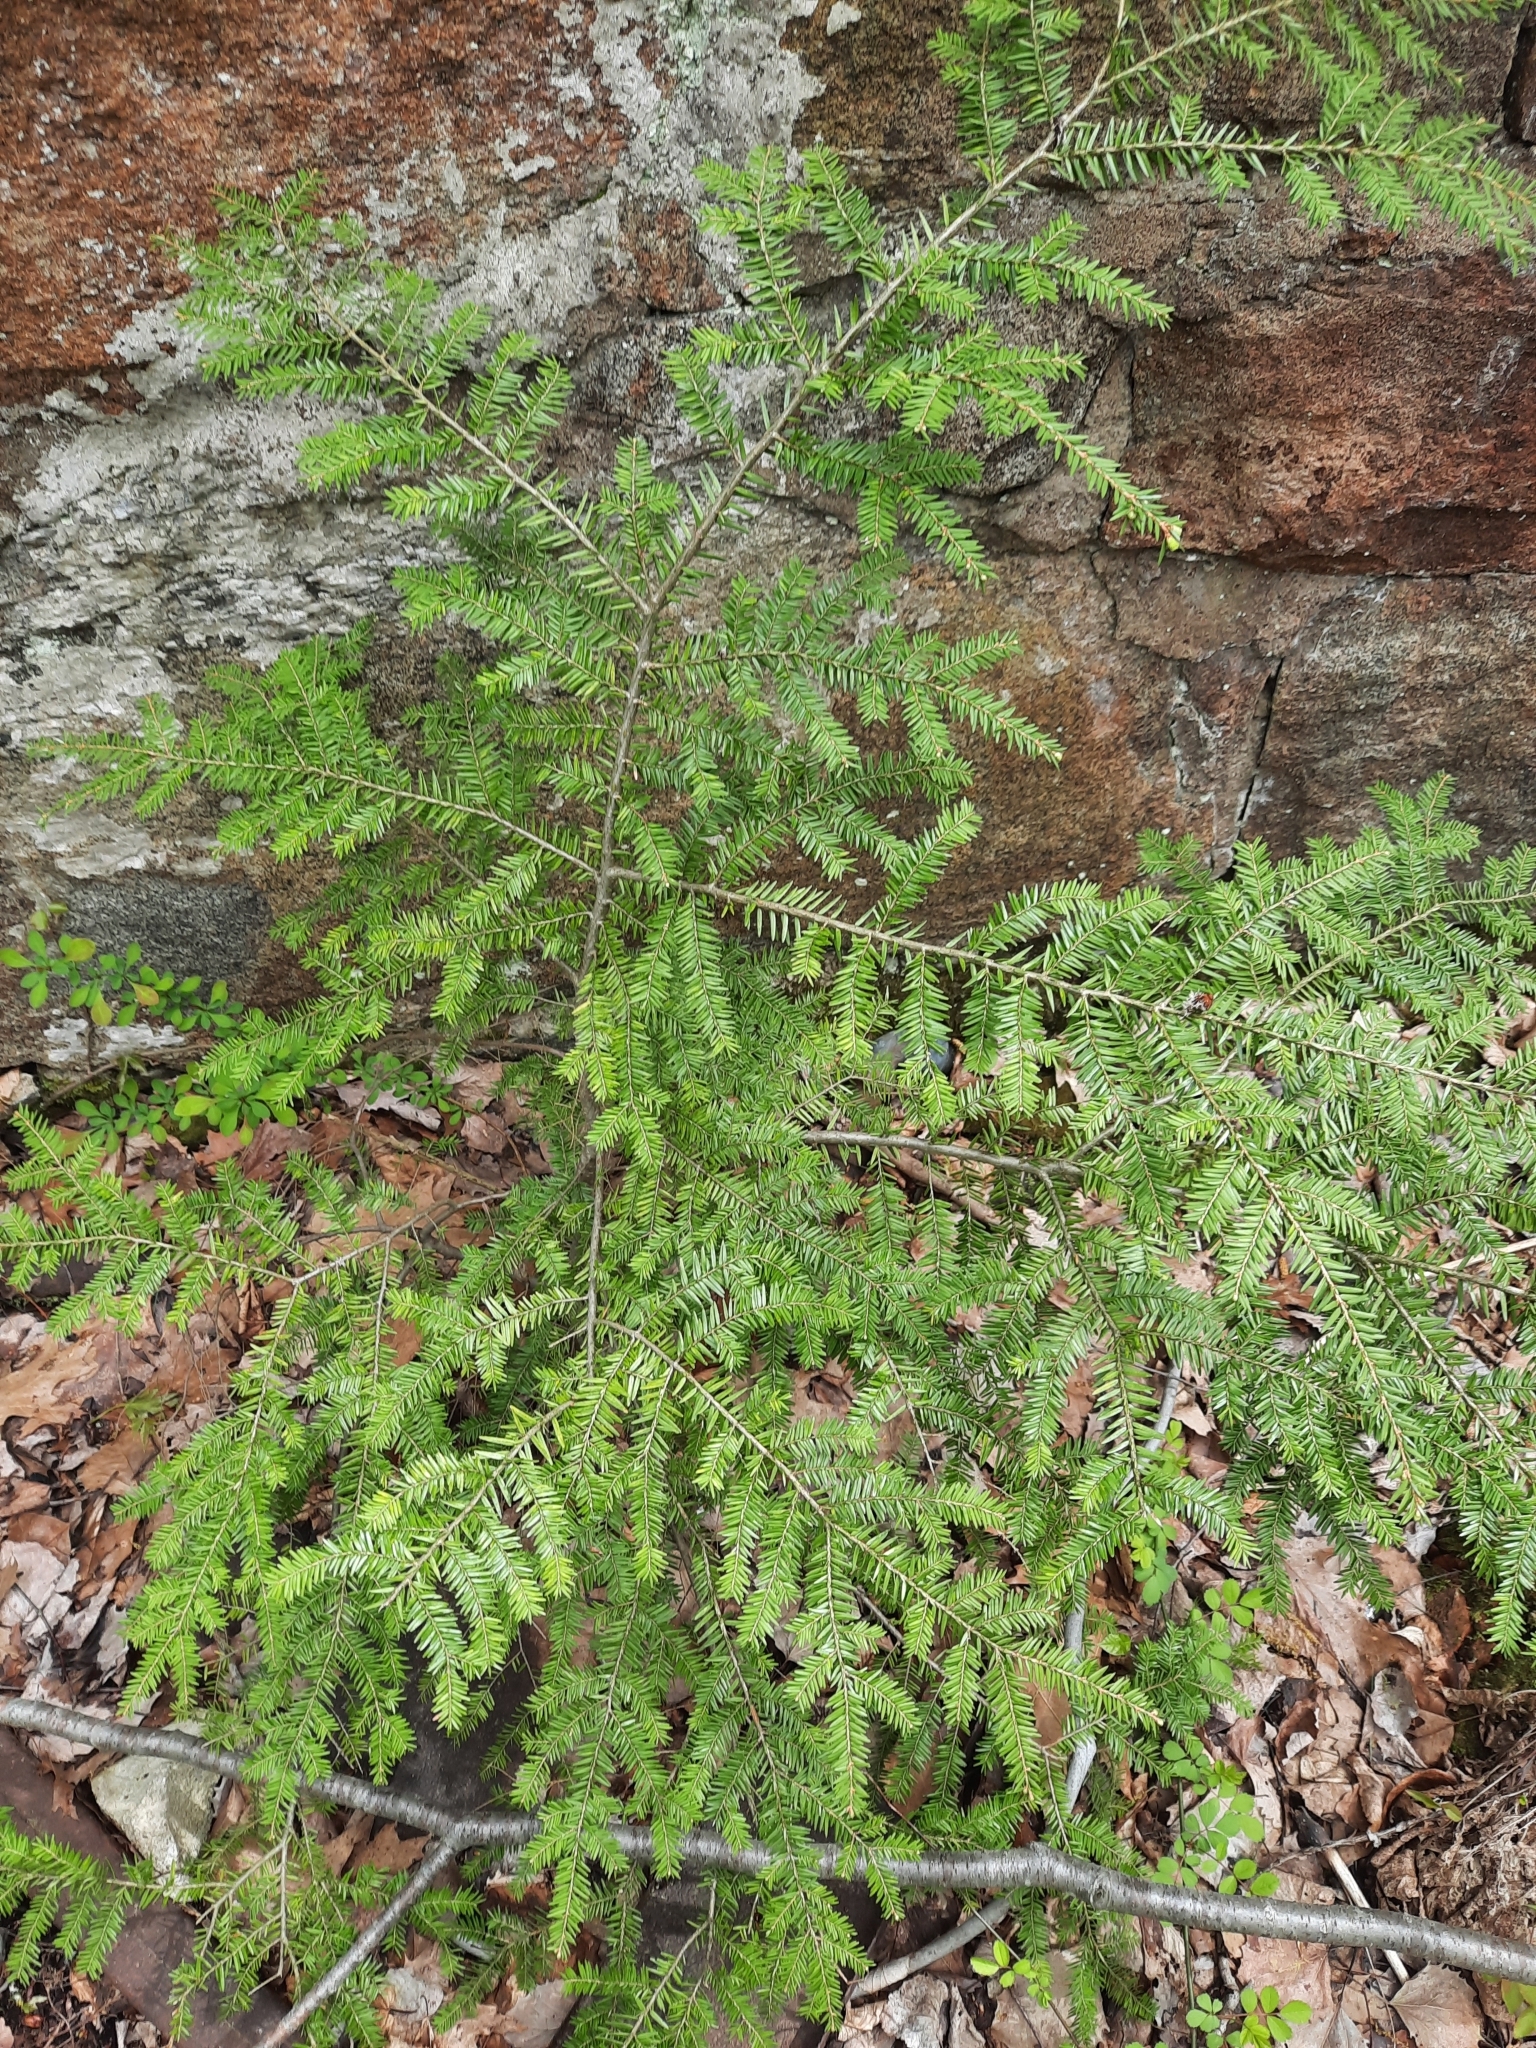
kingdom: Plantae
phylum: Tracheophyta
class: Pinopsida
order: Pinales
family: Pinaceae
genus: Tsuga
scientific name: Tsuga canadensis
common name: Eastern hemlock
